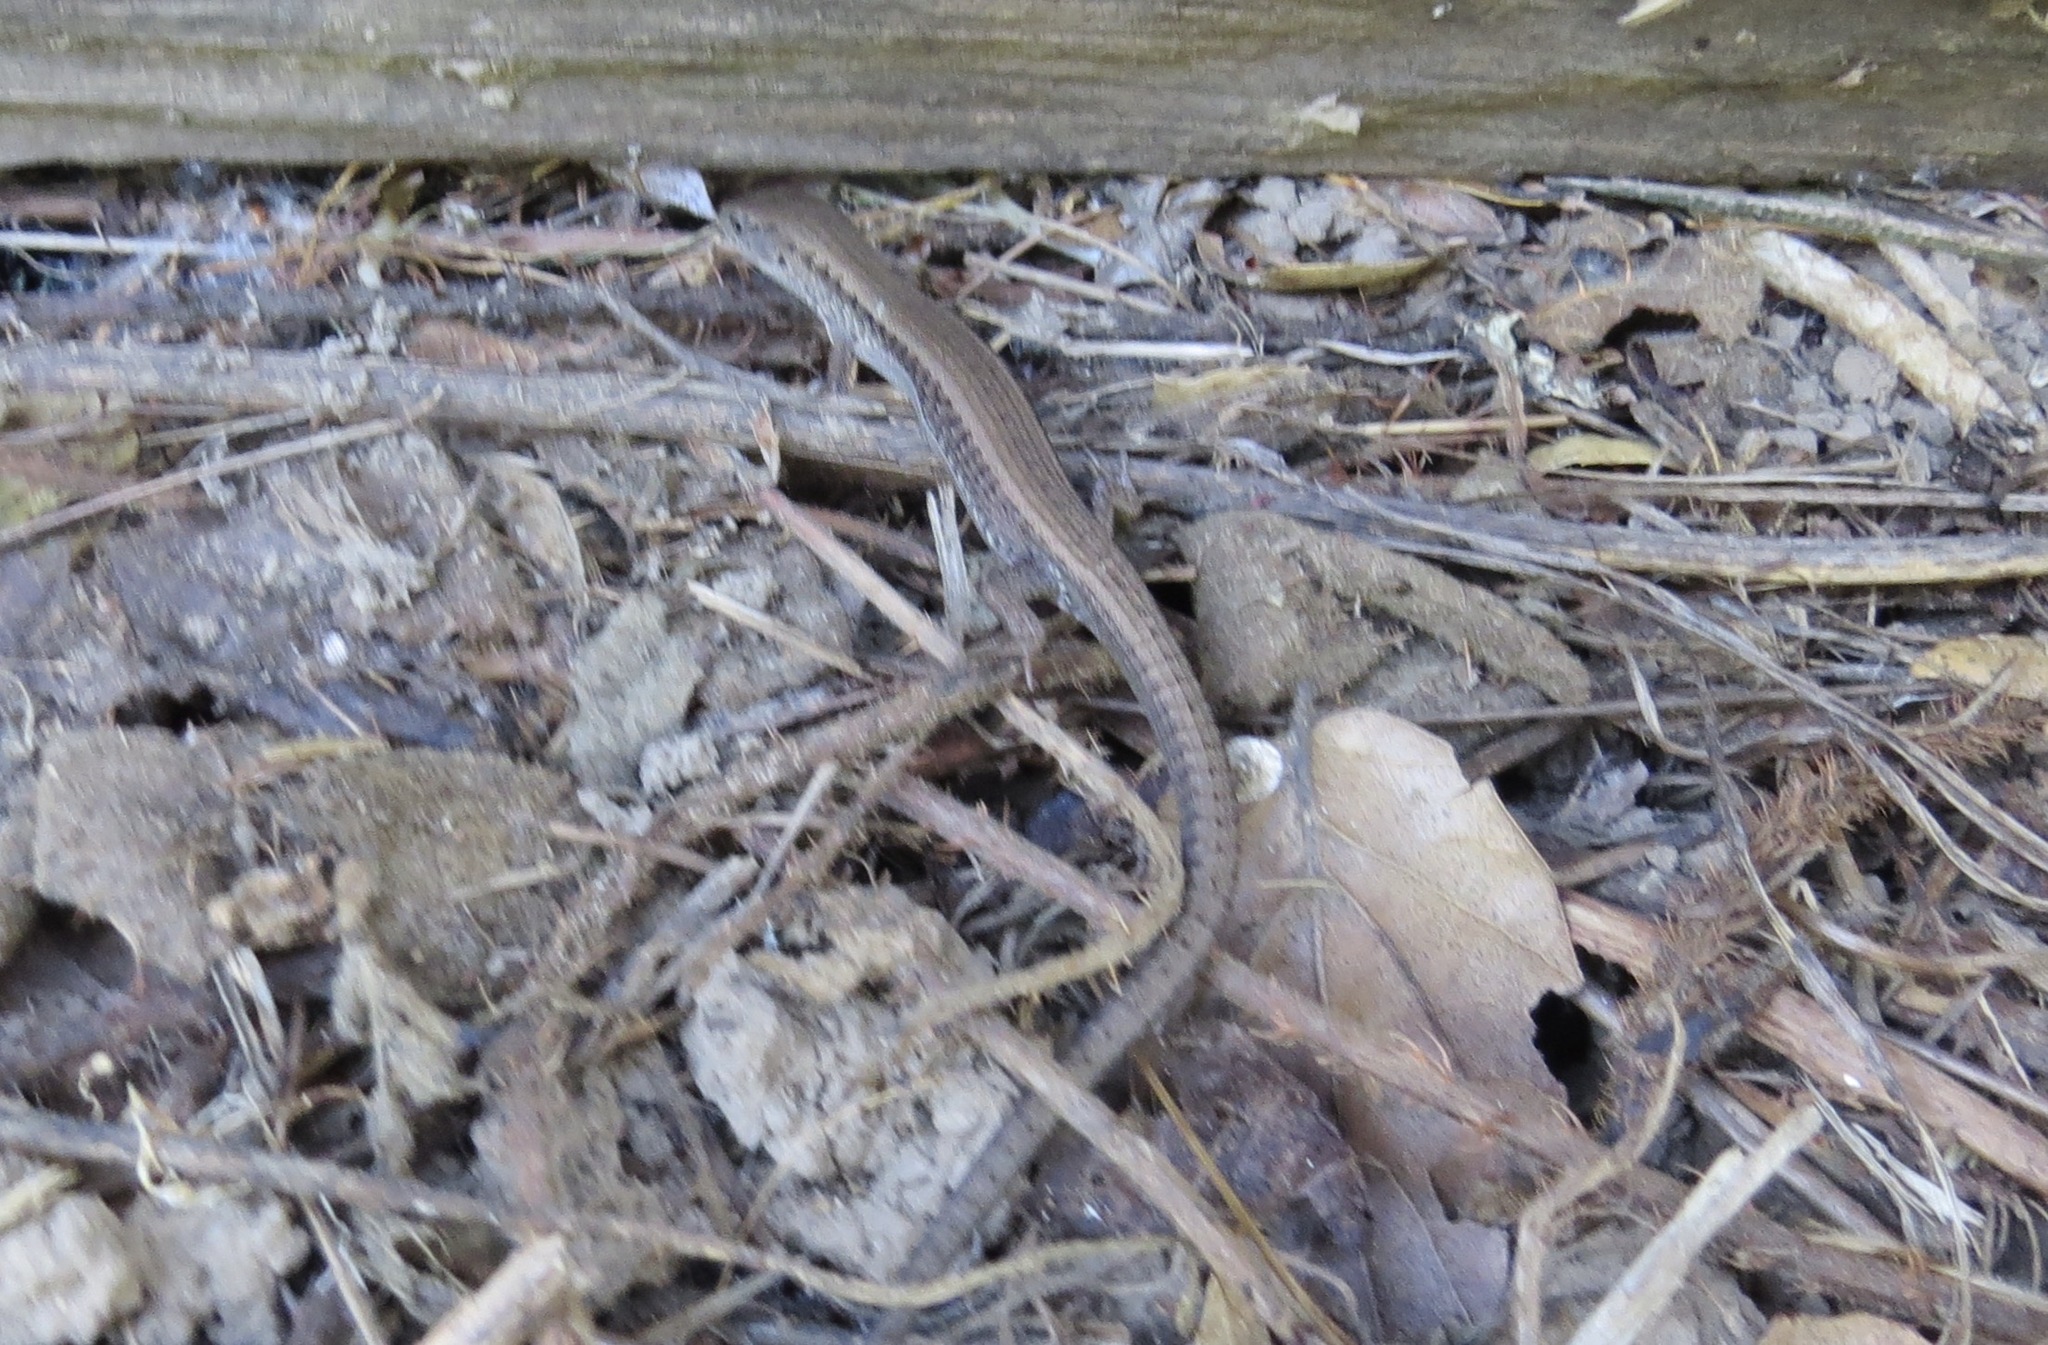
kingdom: Animalia
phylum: Chordata
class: Squamata
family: Anguidae
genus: Elgaria
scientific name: Elgaria coerulea
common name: Northern alligator lizard
